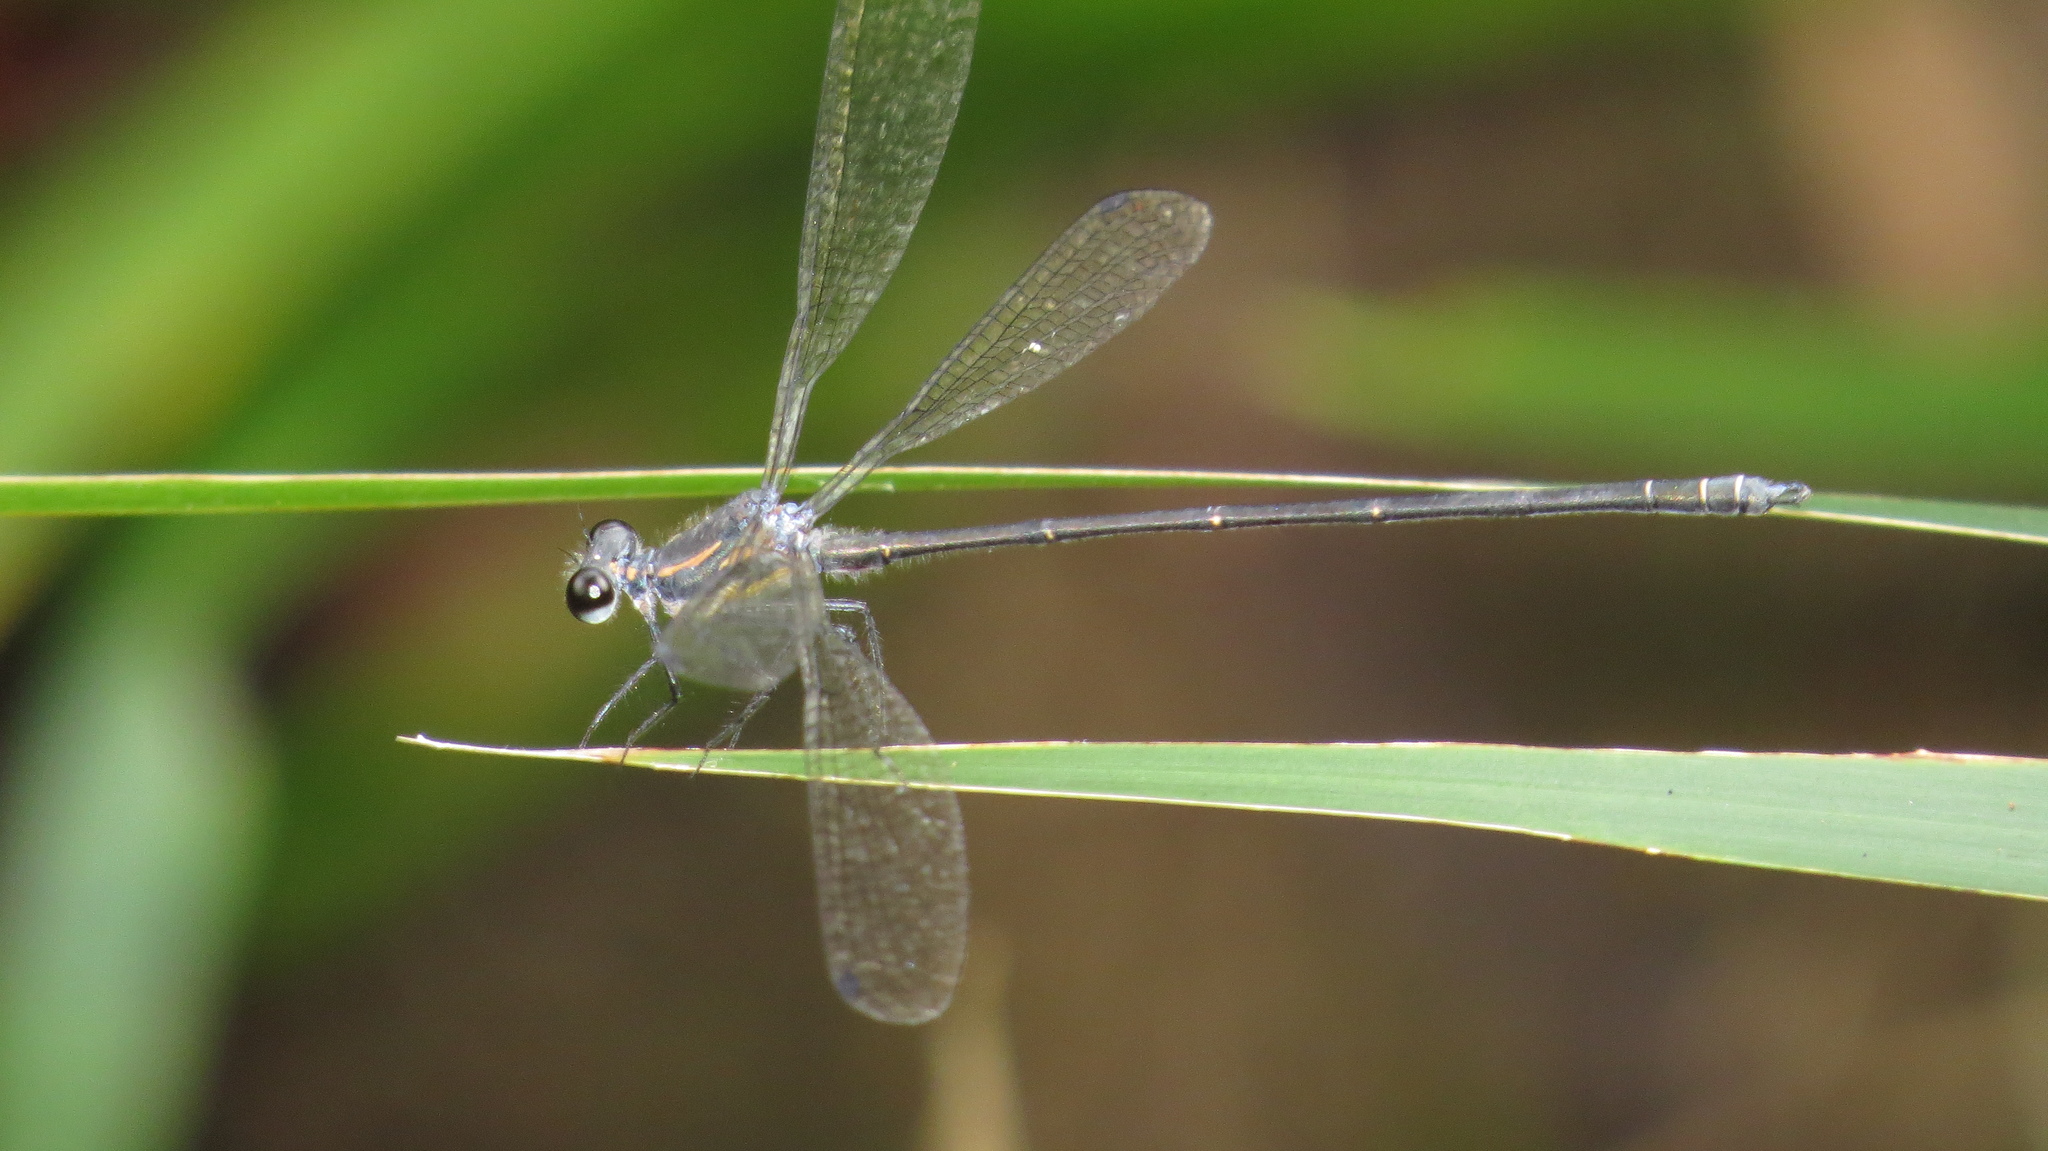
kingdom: Animalia
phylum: Arthropoda
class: Insecta
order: Odonata
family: Argiolestidae
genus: Austroargiolestes
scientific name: Austroargiolestes icteromelas
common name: Common flatwing
